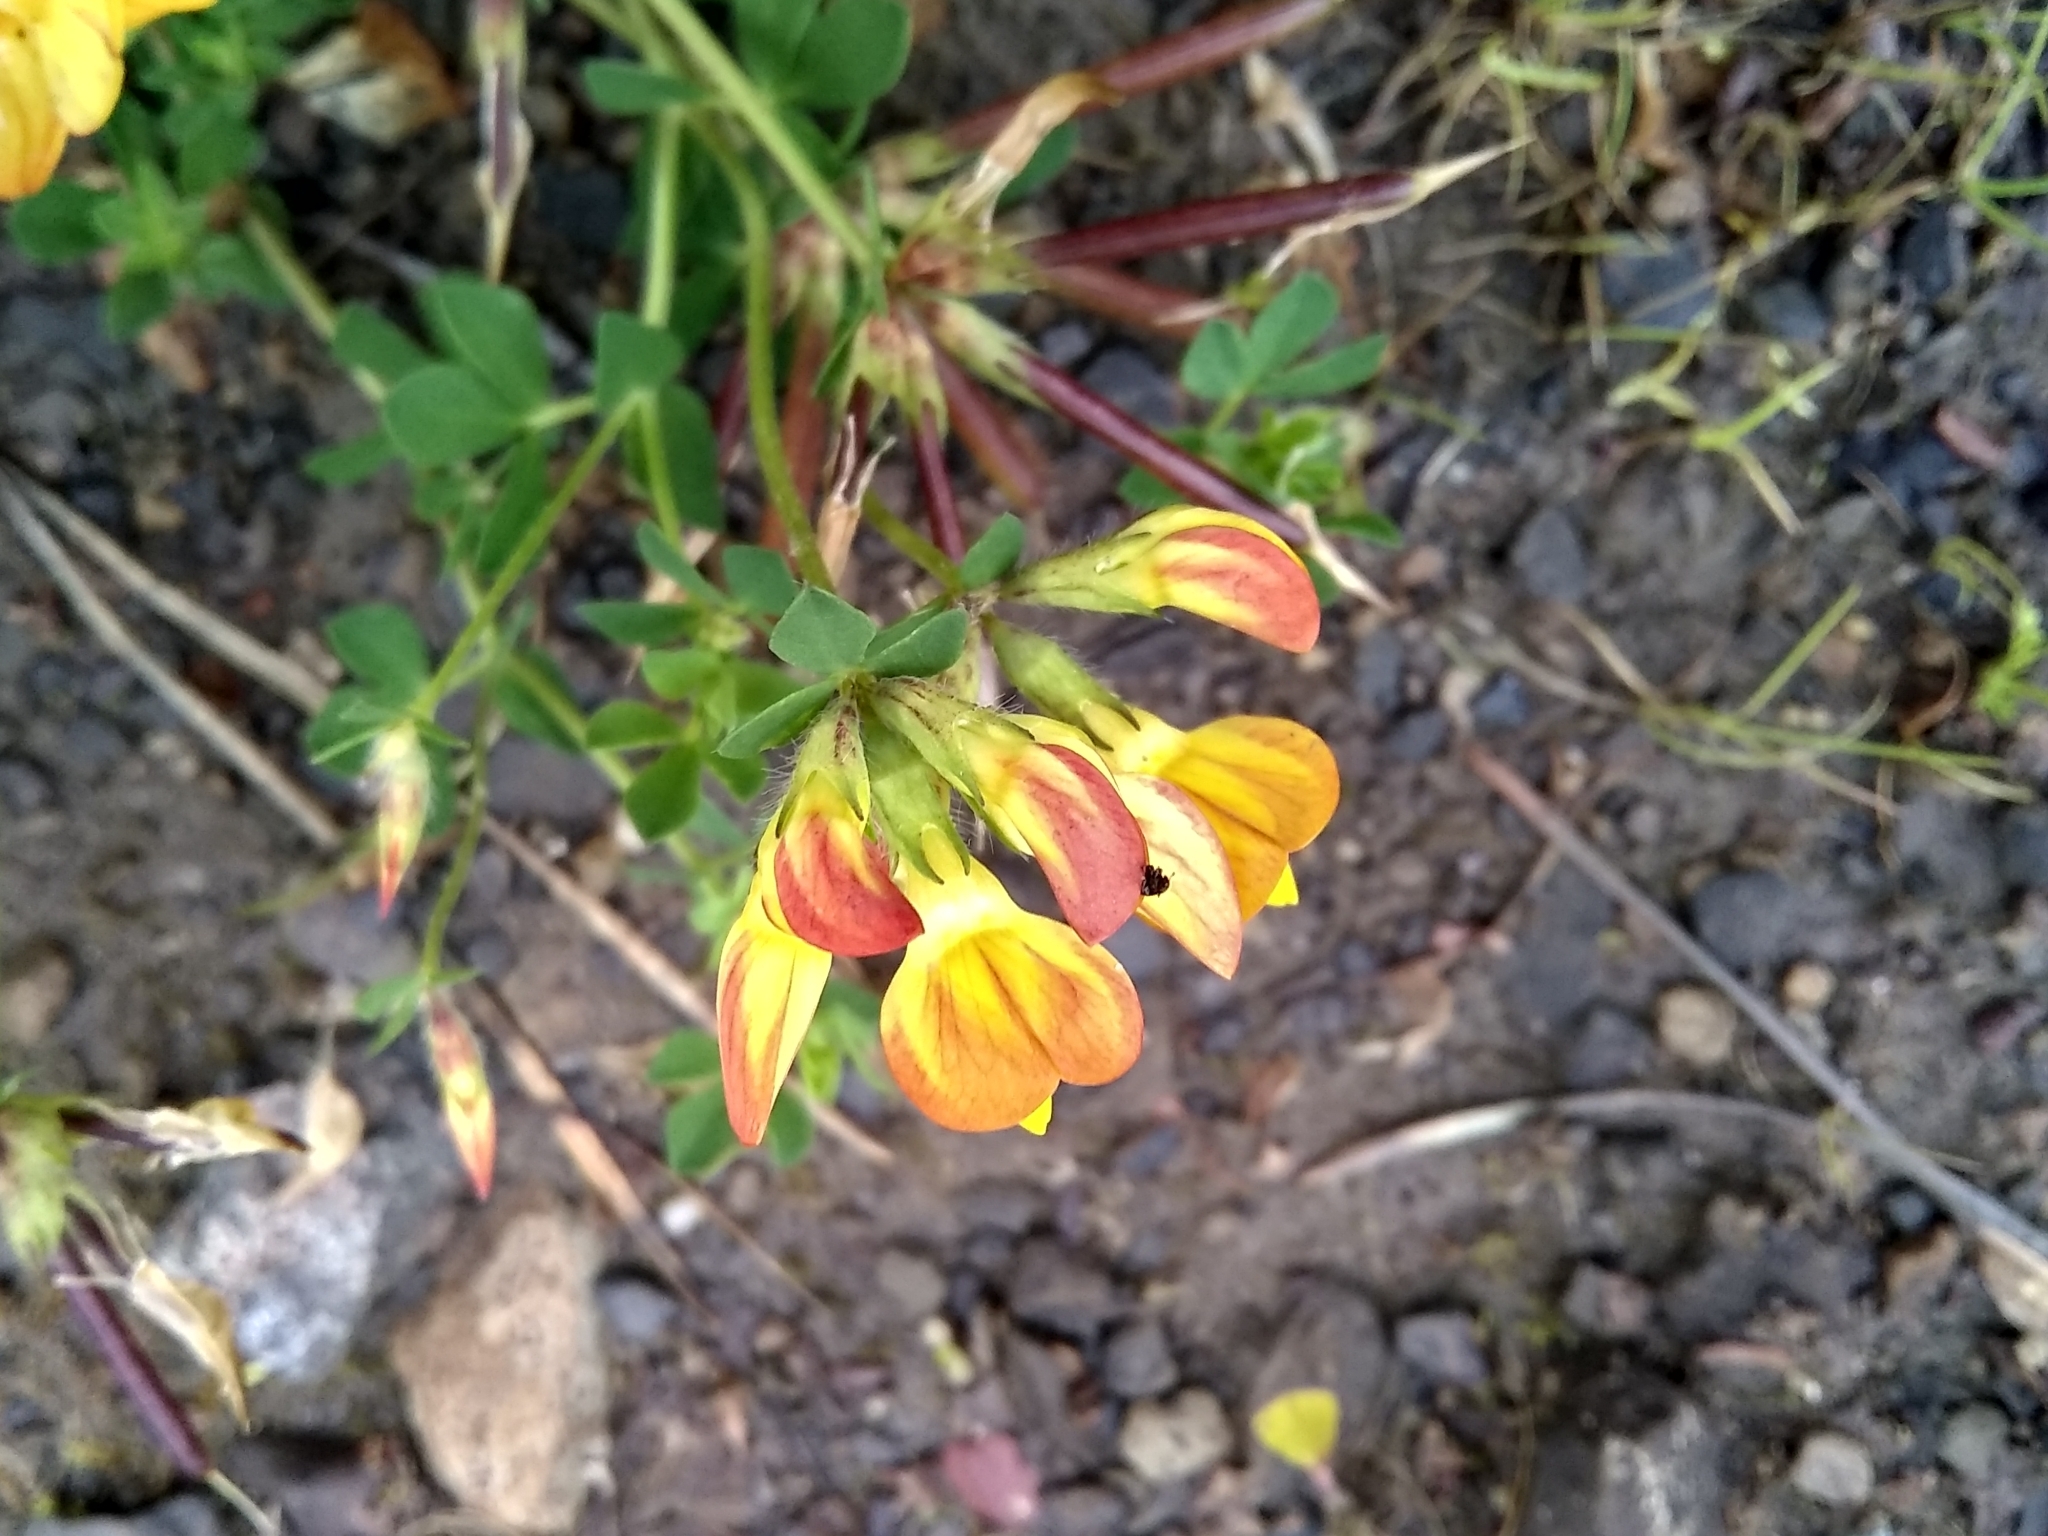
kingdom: Plantae
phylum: Tracheophyta
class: Magnoliopsida
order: Fabales
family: Fabaceae
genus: Lotus
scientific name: Lotus corniculatus
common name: Common bird's-foot-trefoil
